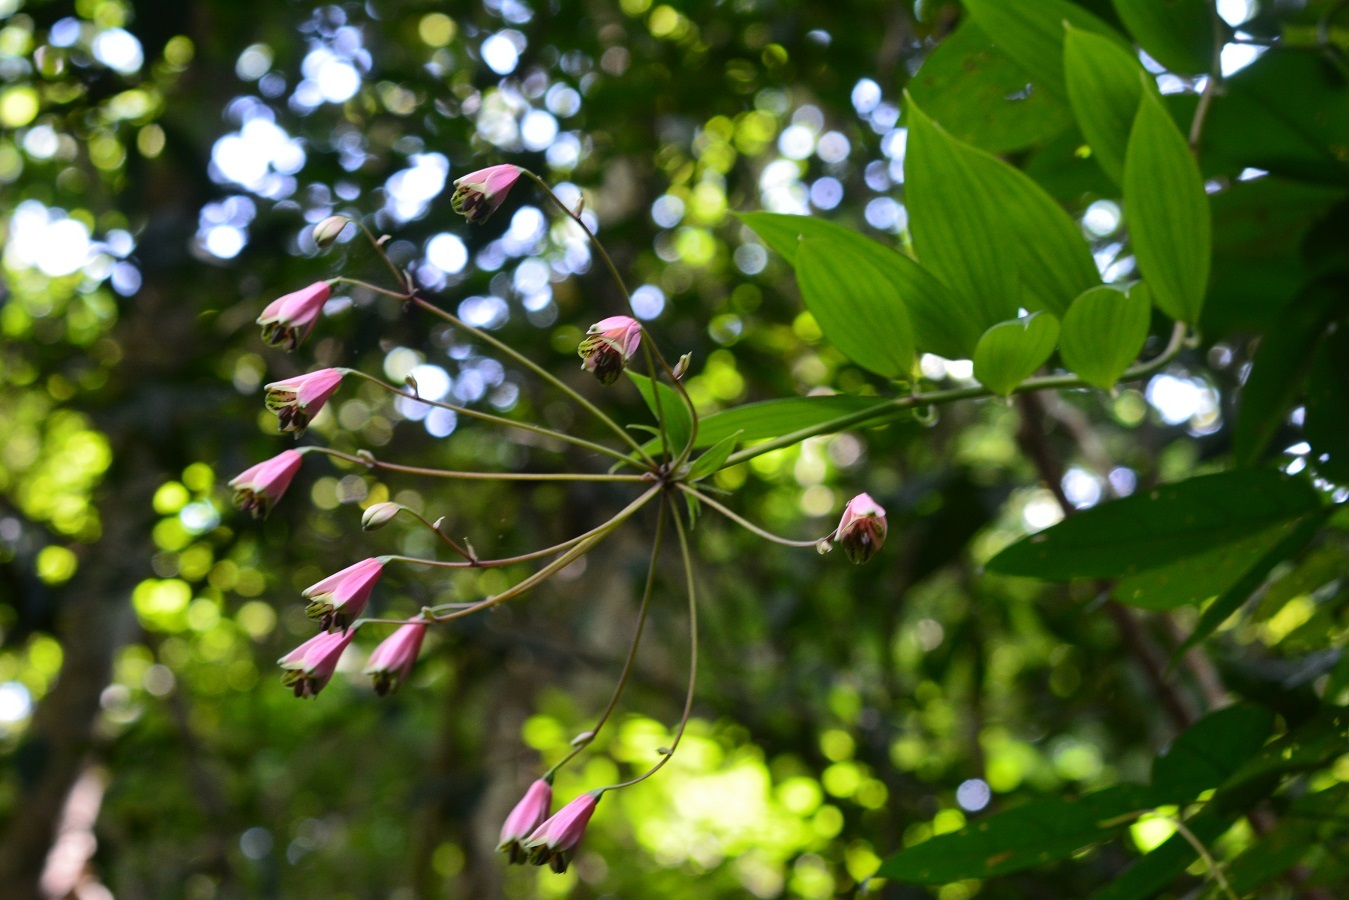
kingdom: Plantae
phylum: Tracheophyta
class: Liliopsida
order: Liliales
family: Alstroemeriaceae
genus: Bomarea
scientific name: Bomarea edulis
